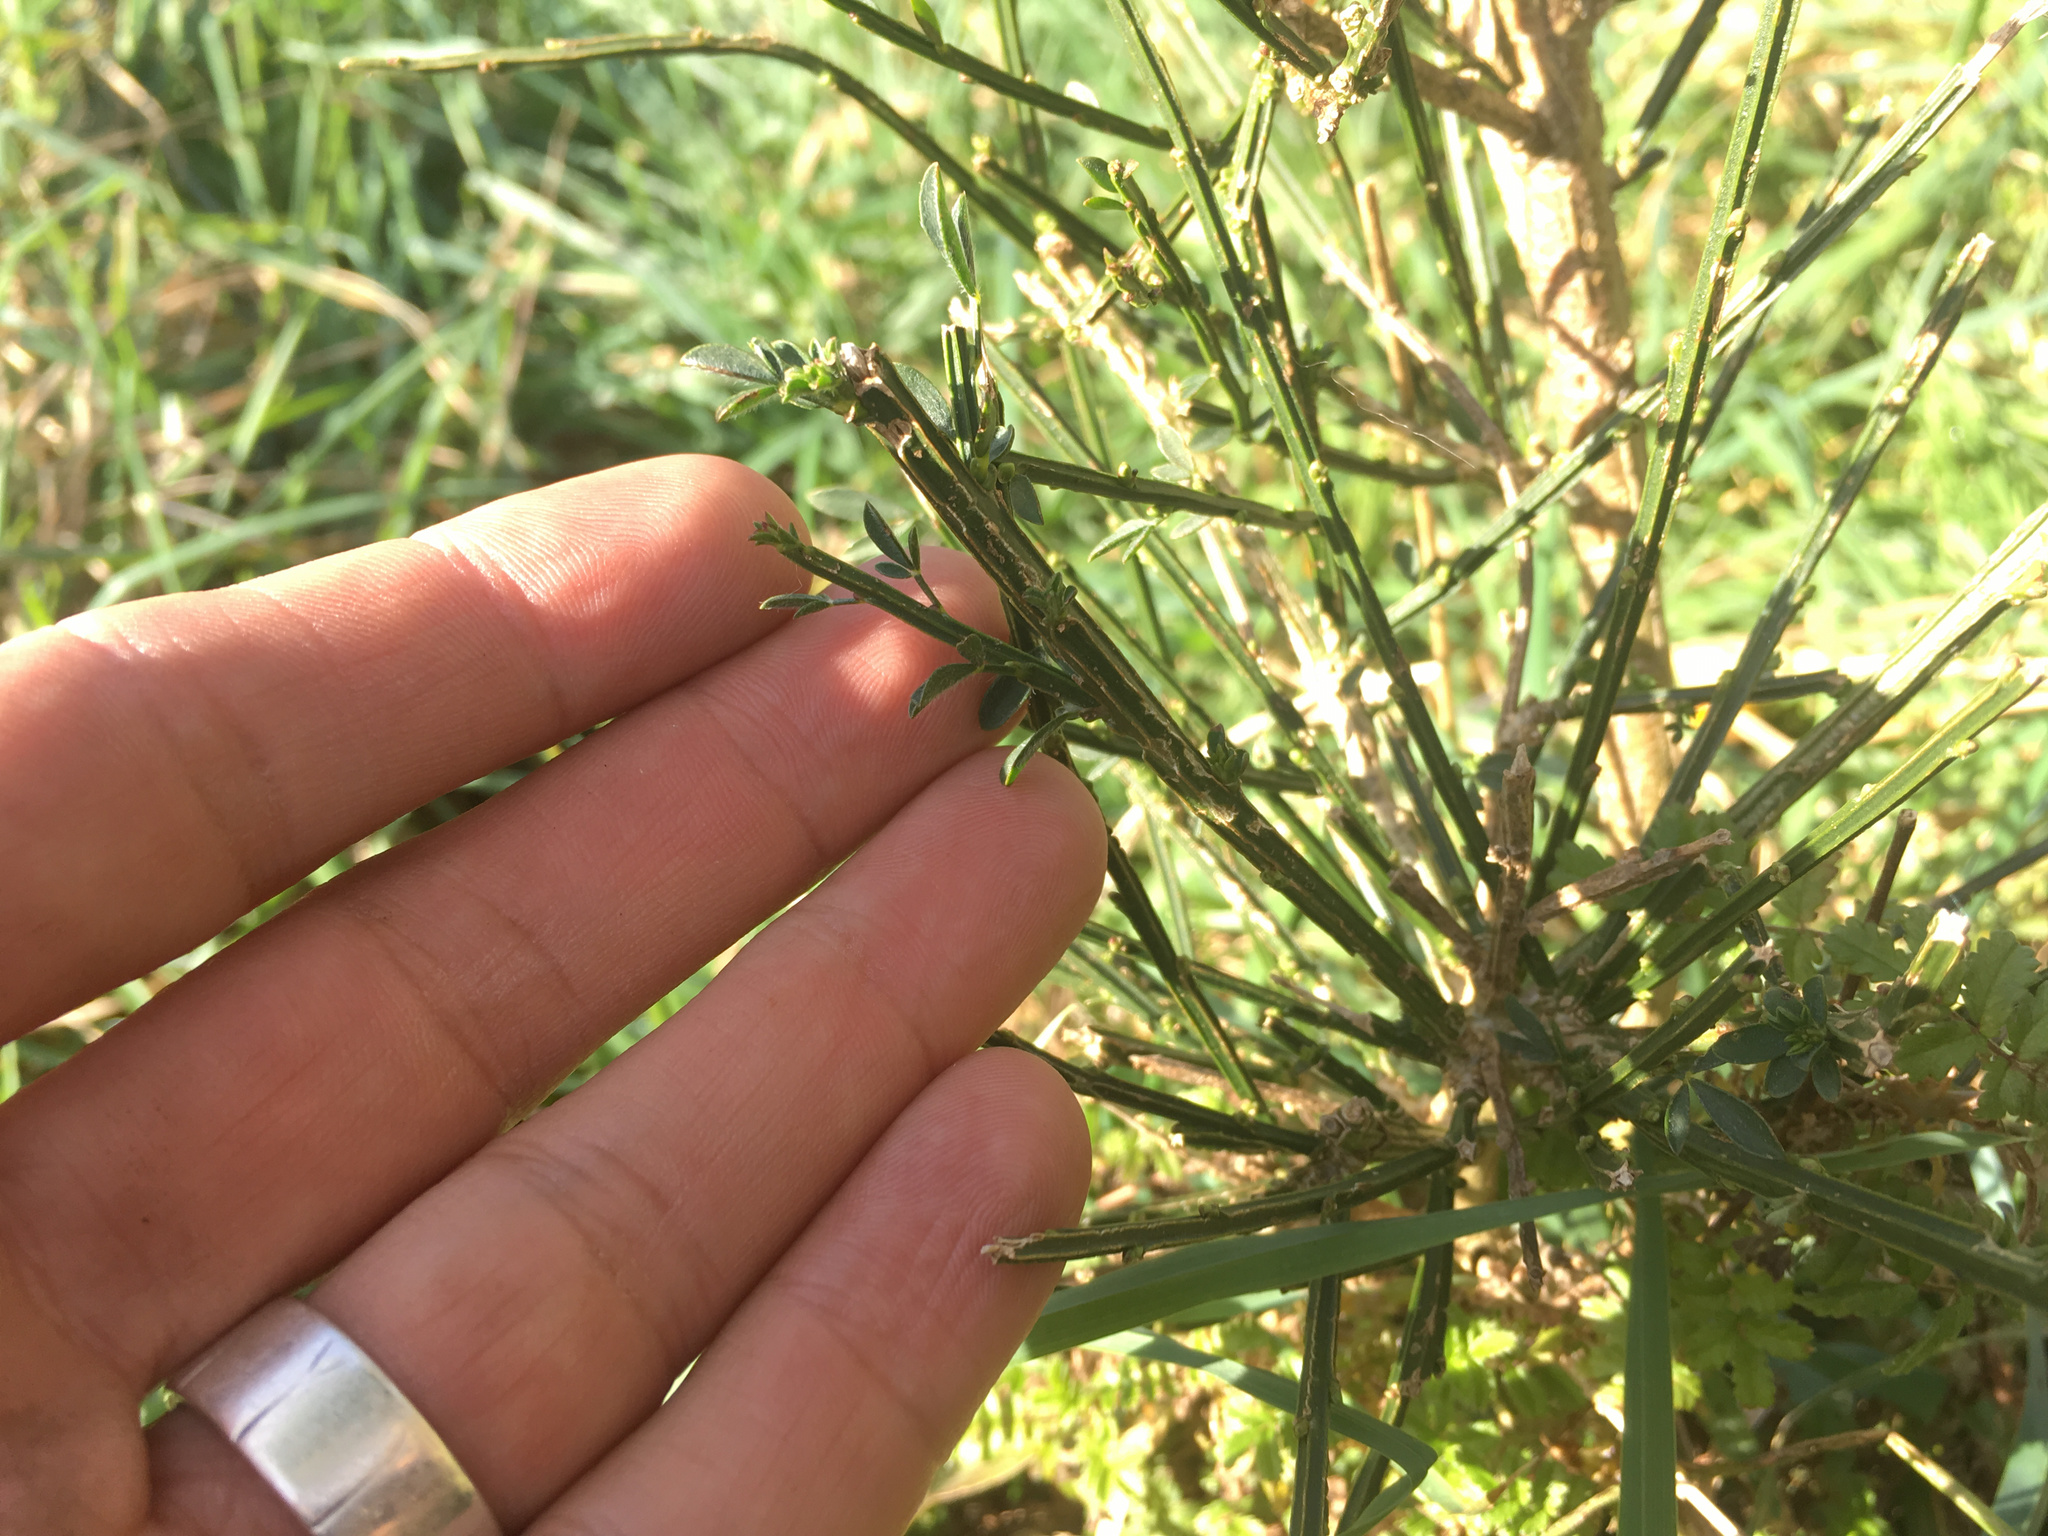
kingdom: Plantae
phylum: Tracheophyta
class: Magnoliopsida
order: Fabales
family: Fabaceae
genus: Cytisus
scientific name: Cytisus scoparius
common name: Scotch broom
